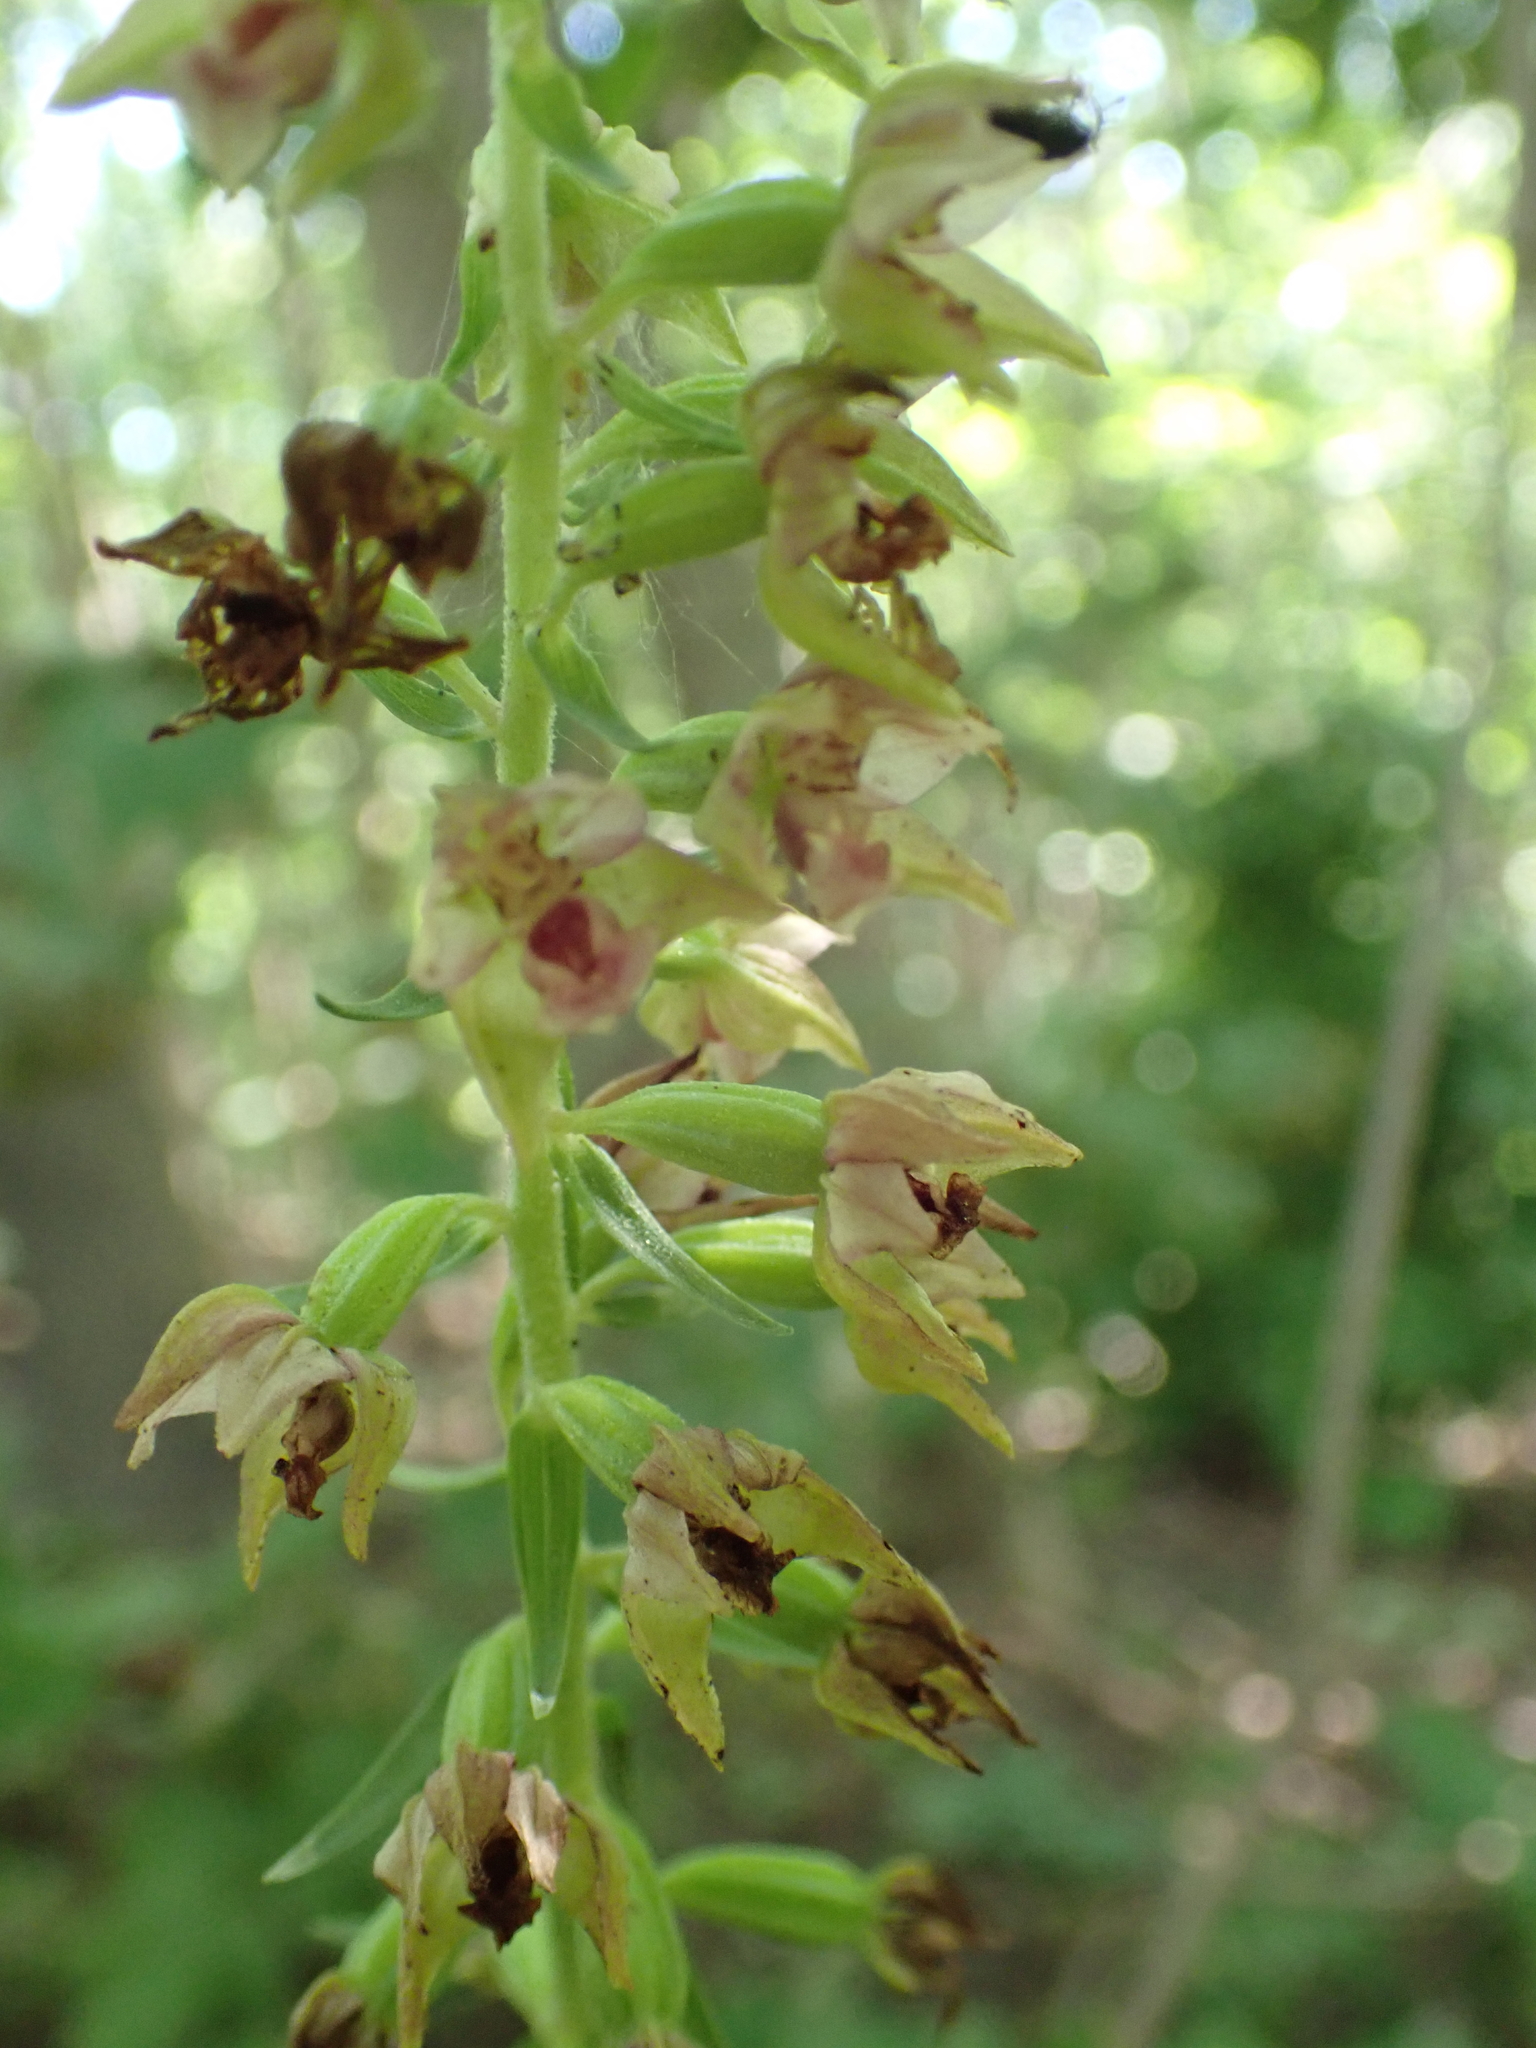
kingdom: Plantae
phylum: Tracheophyta
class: Liliopsida
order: Asparagales
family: Orchidaceae
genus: Epipactis
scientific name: Epipactis helleborine
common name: Broad-leaved helleborine
